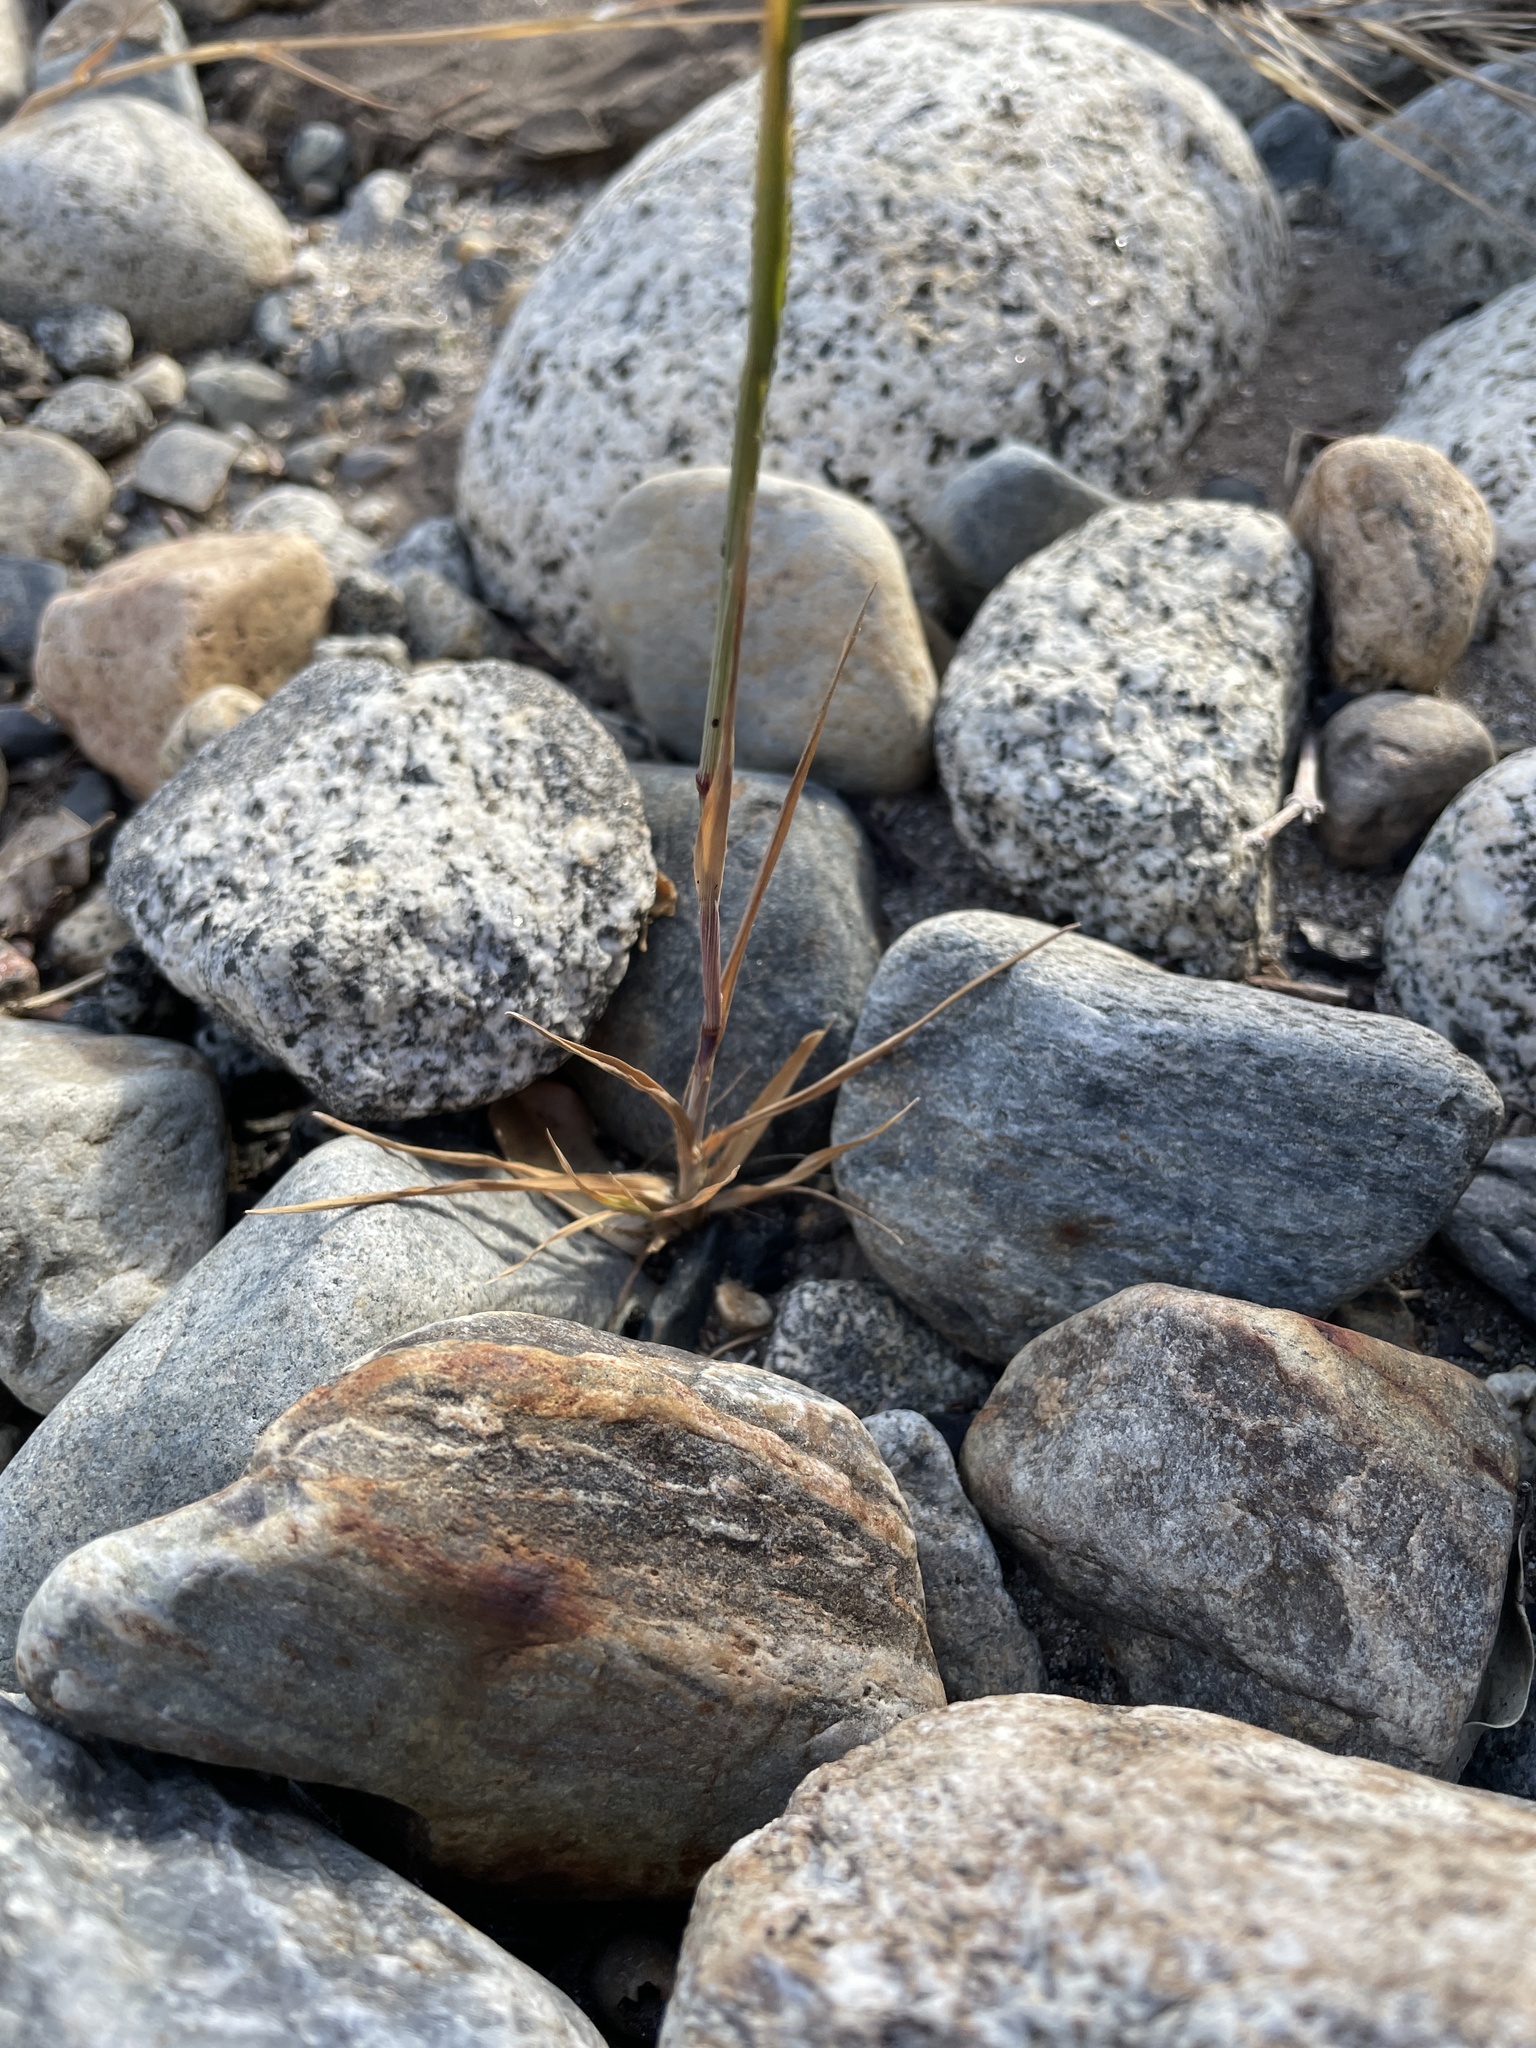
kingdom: Plantae
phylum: Tracheophyta
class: Liliopsida
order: Poales
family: Poaceae
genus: Cynosurus
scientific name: Cynosurus echinatus
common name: Rough dog's-tail
